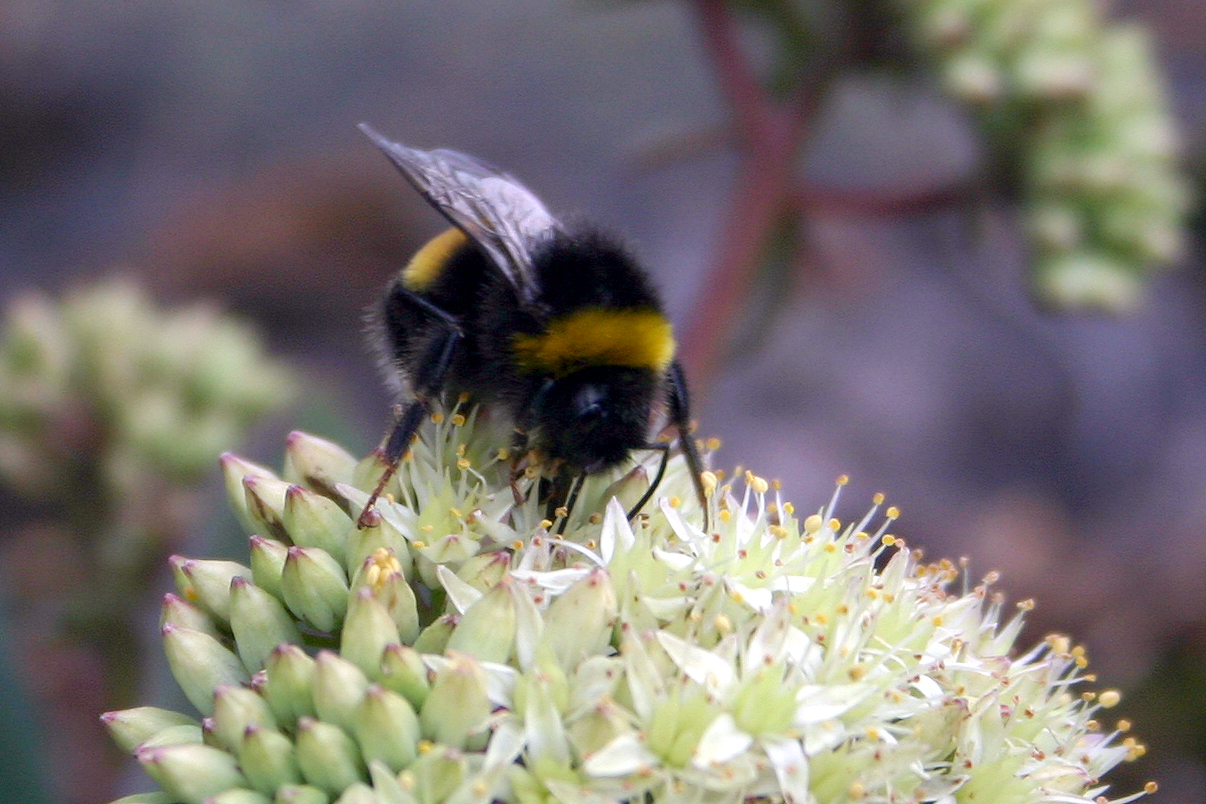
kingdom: Animalia
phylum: Arthropoda
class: Insecta
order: Hymenoptera
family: Apidae
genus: Bombus
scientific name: Bombus terrestris
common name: Buff-tailed bumblebee
